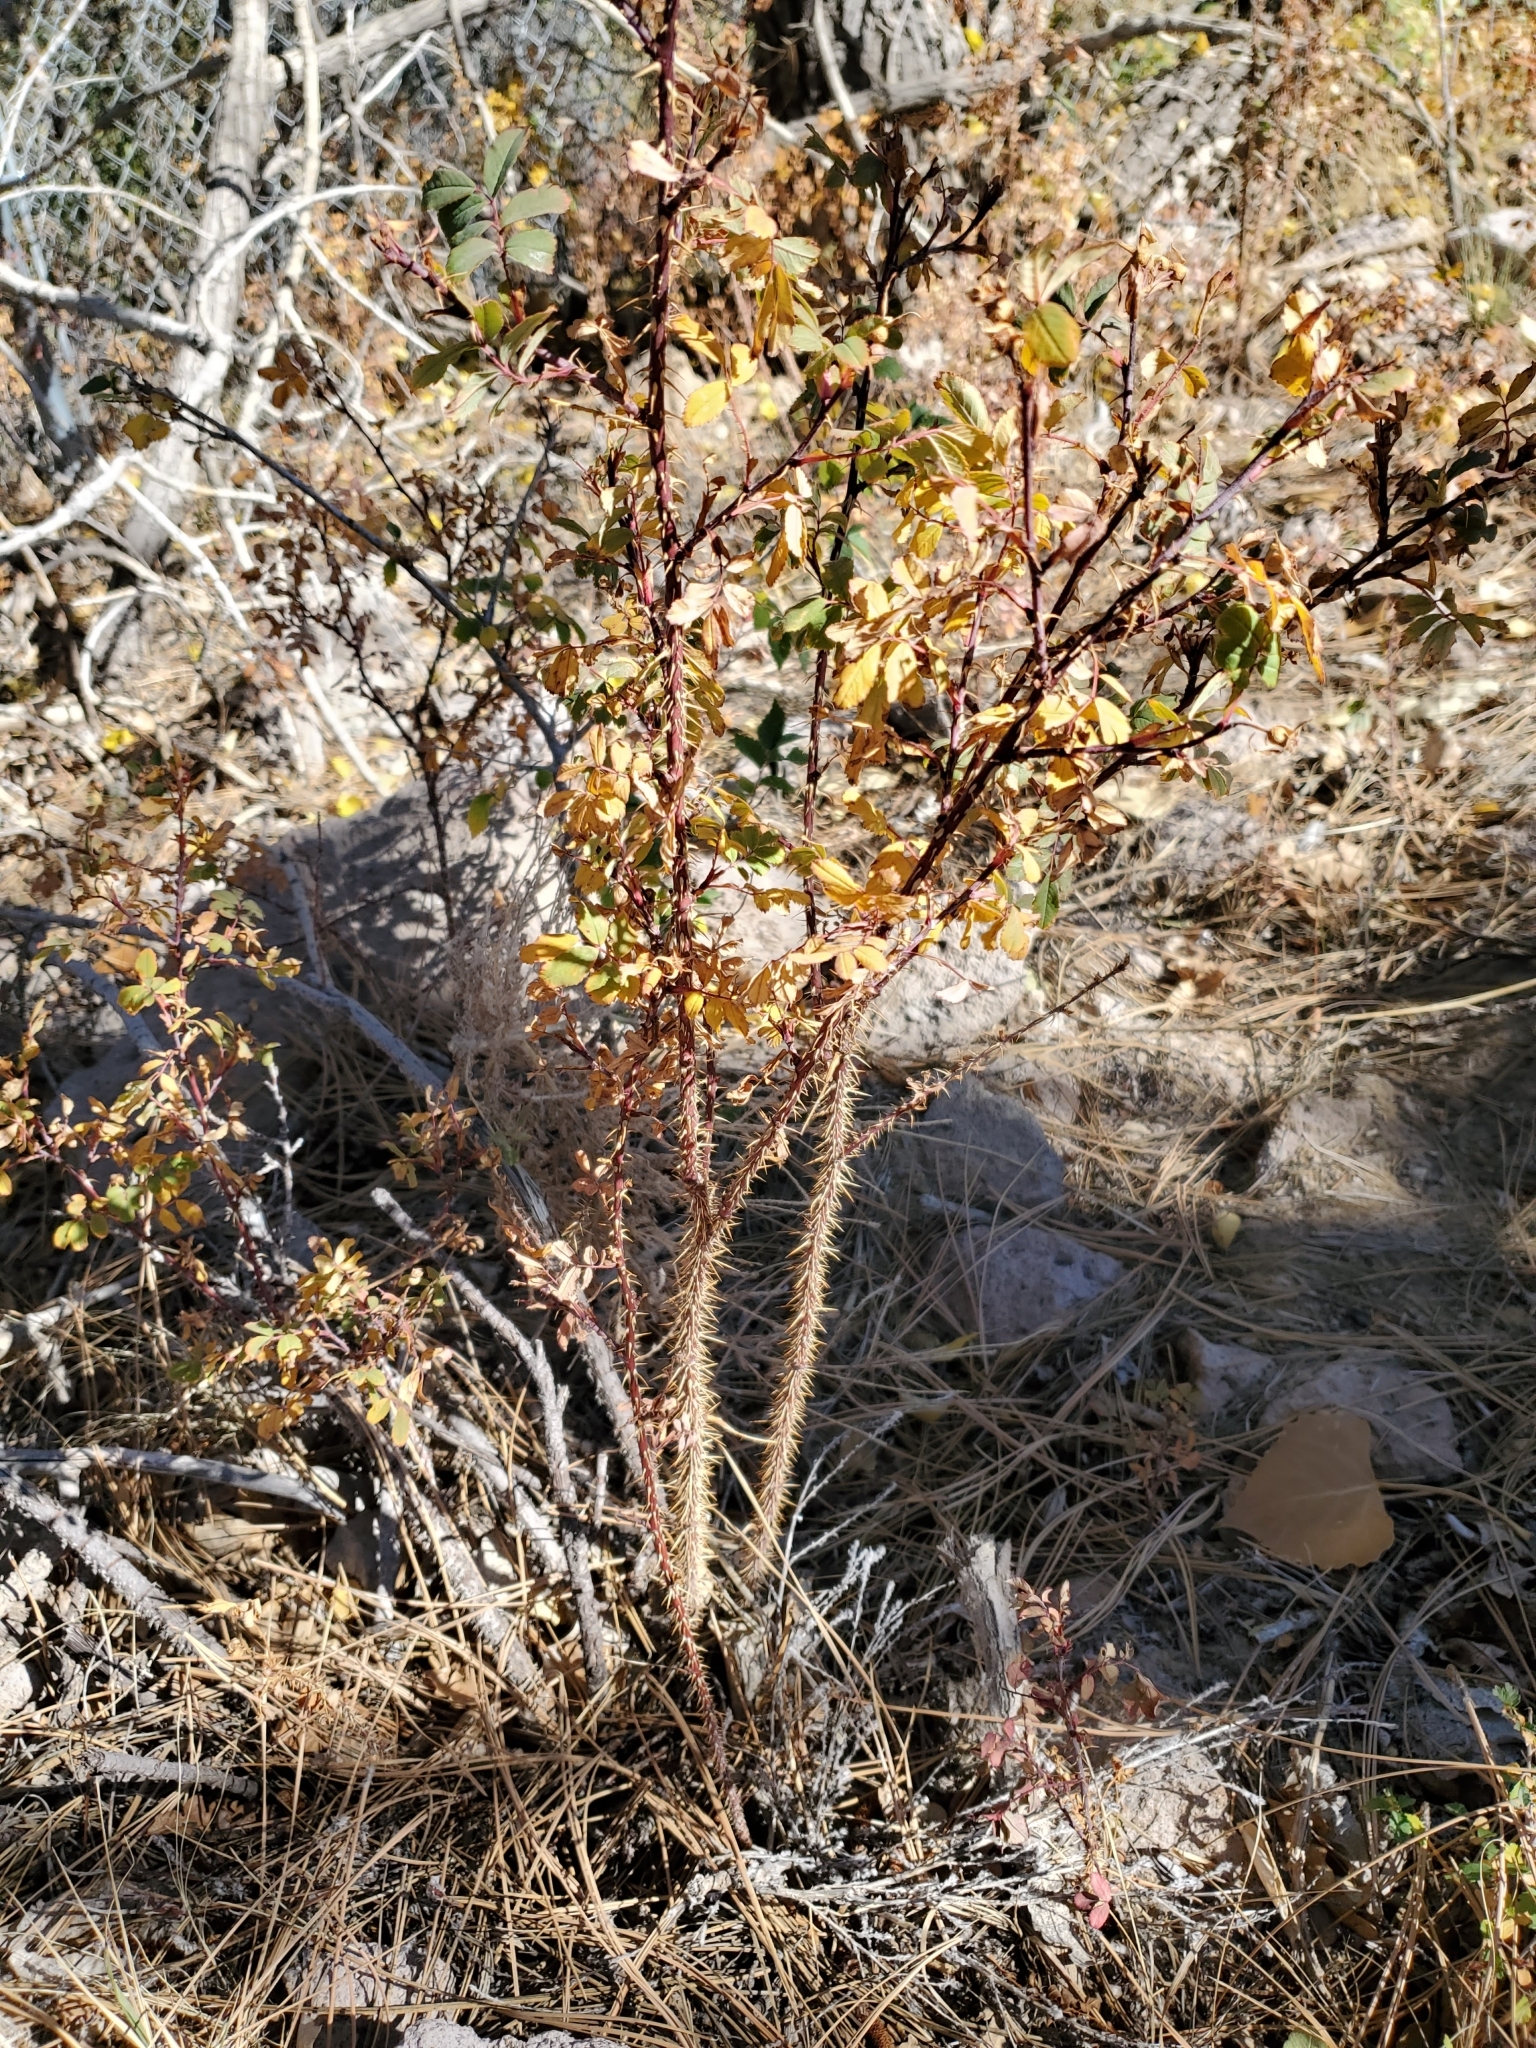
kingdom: Plantae
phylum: Tracheophyta
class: Magnoliopsida
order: Rosales
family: Rosaceae
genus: Rosa
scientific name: Rosa woodsii
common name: Woods's rose
